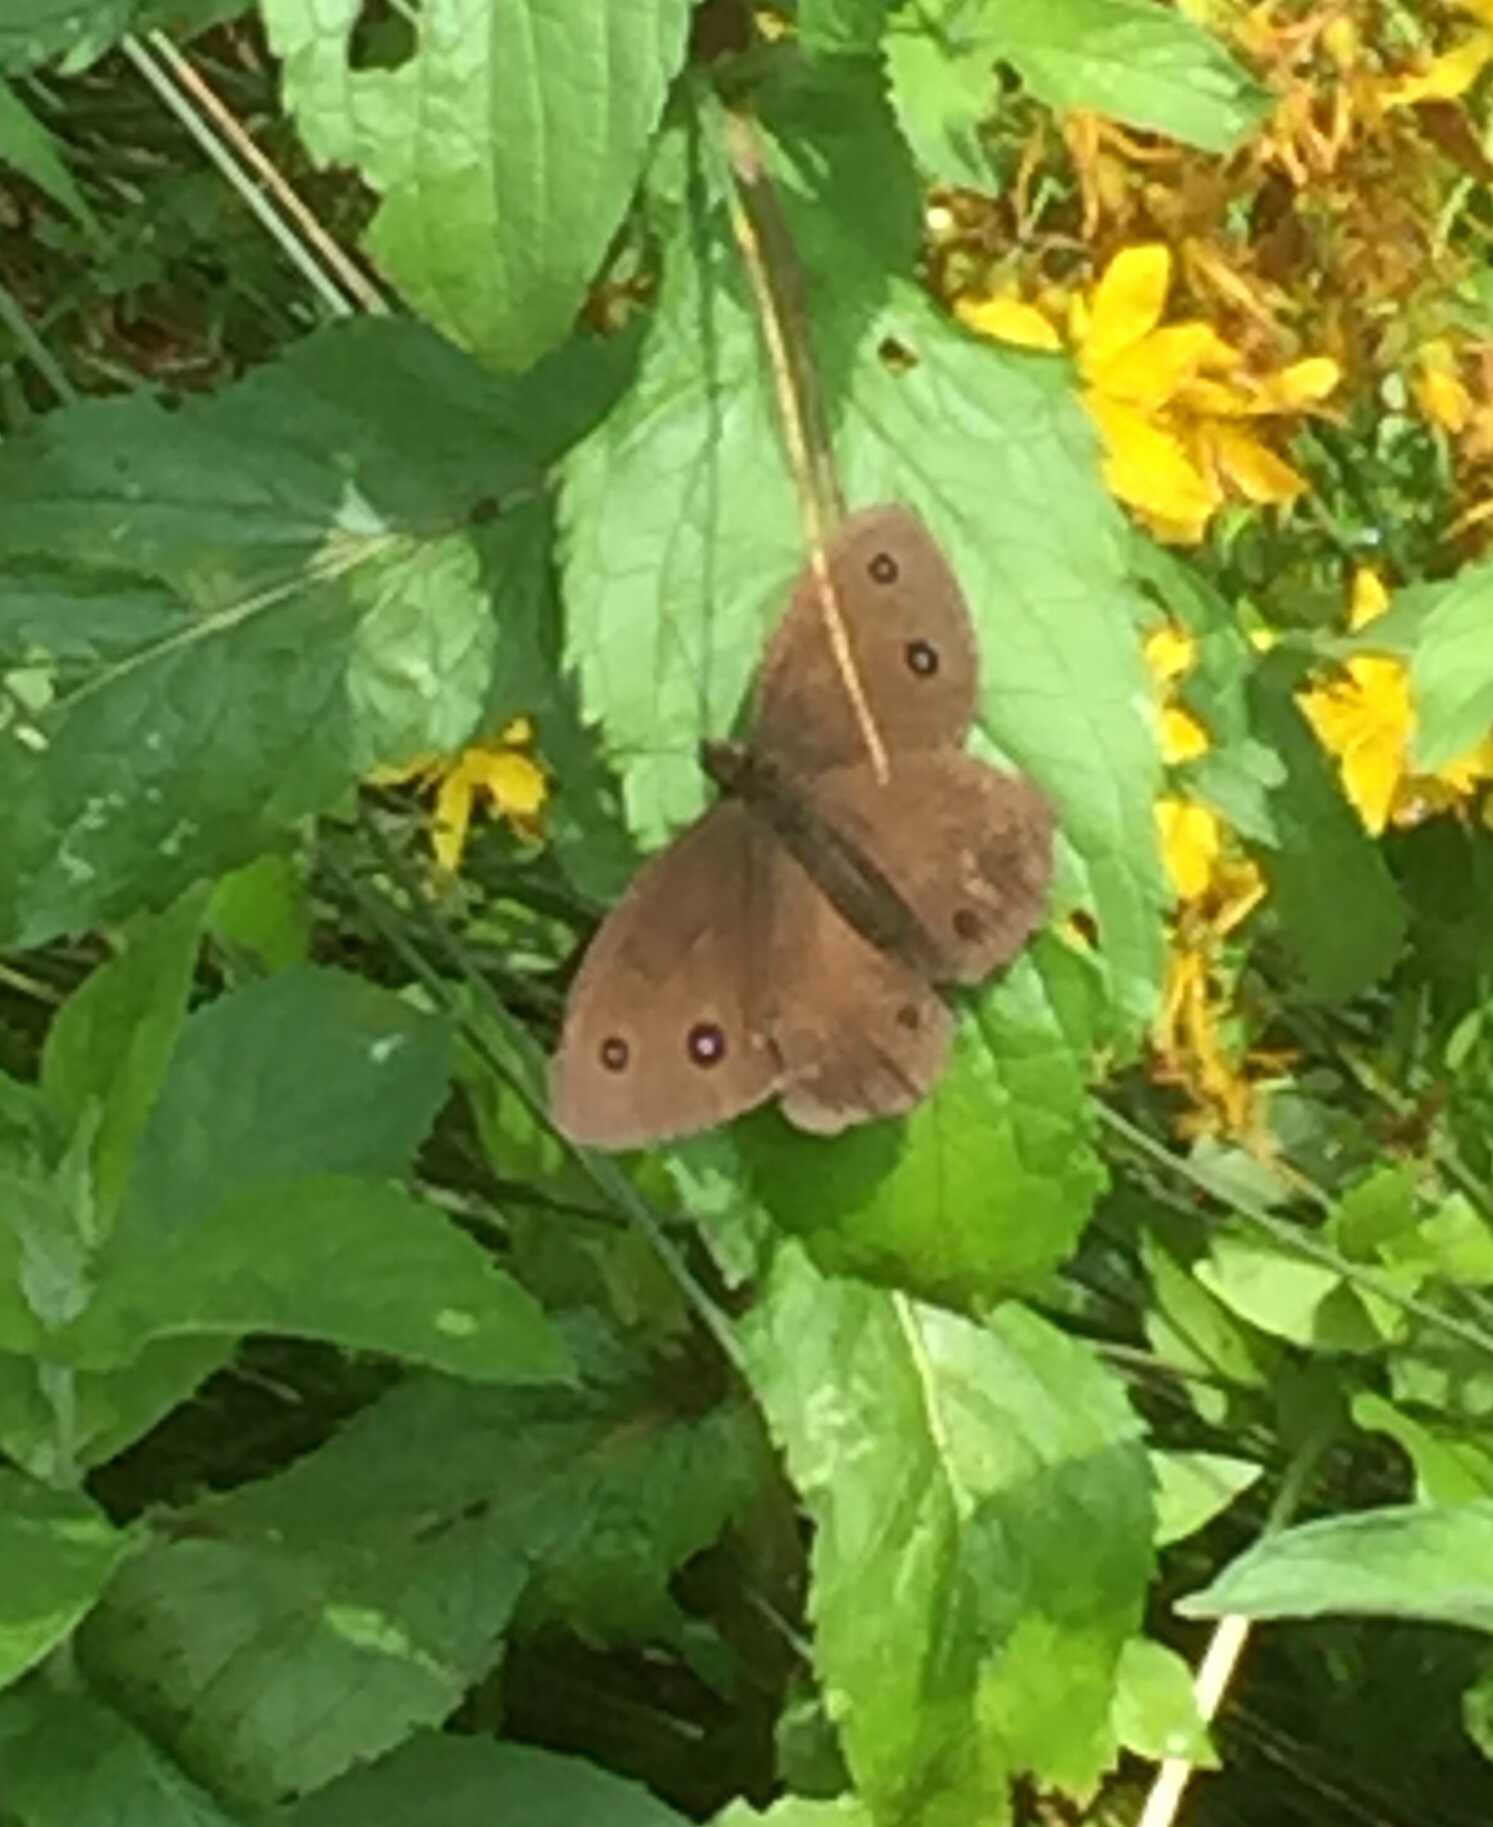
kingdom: Animalia
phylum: Arthropoda
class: Insecta
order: Lepidoptera
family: Nymphalidae
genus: Minois
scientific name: Minois dryas
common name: Dryad
